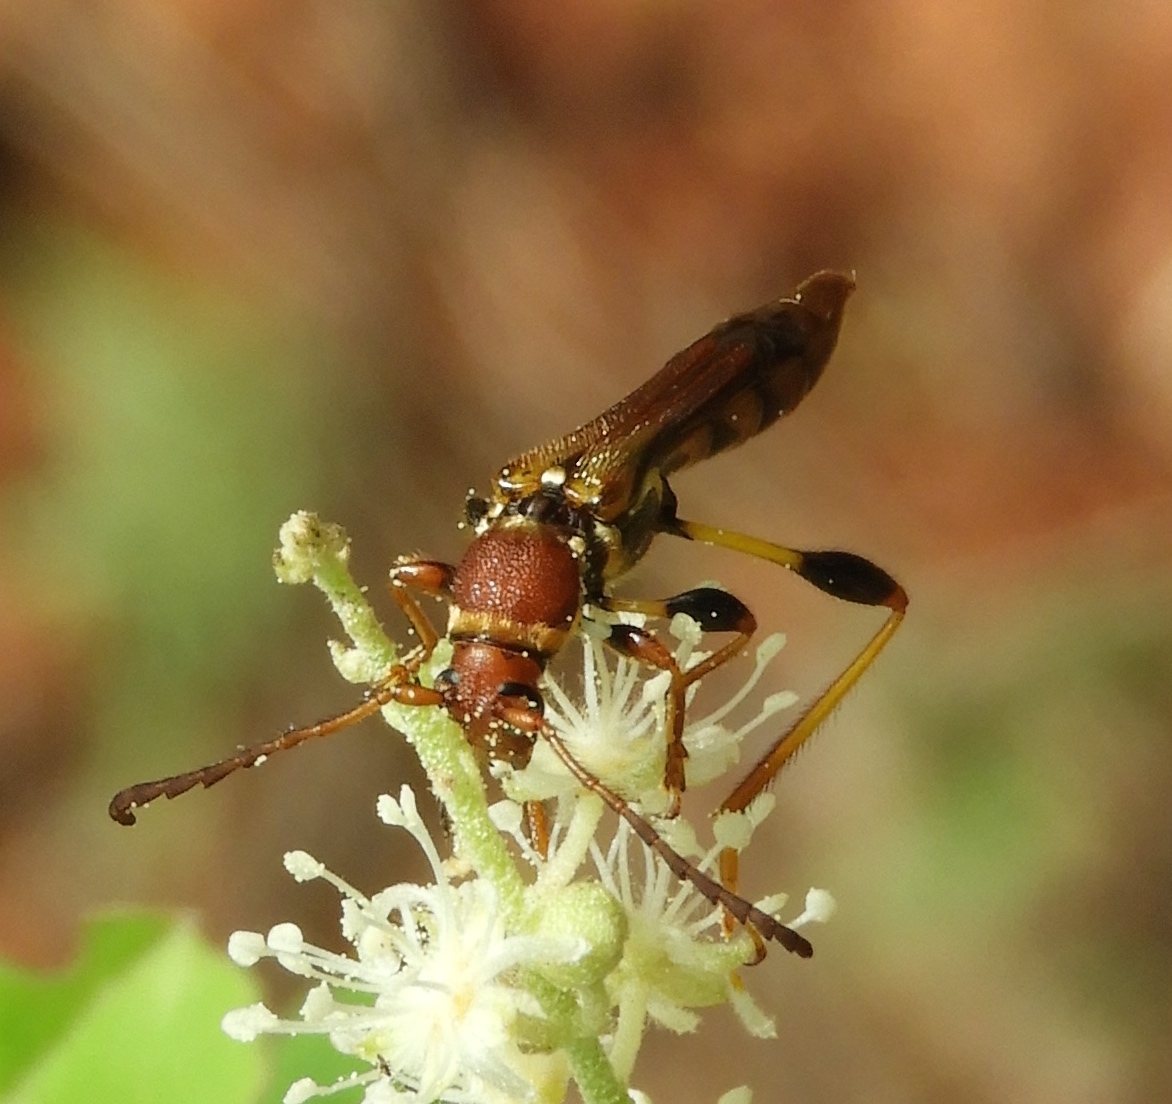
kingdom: Animalia
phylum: Arthropoda
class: Insecta
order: Coleoptera
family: Cerambycidae
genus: Odontocera
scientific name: Odontocera aurocincta
